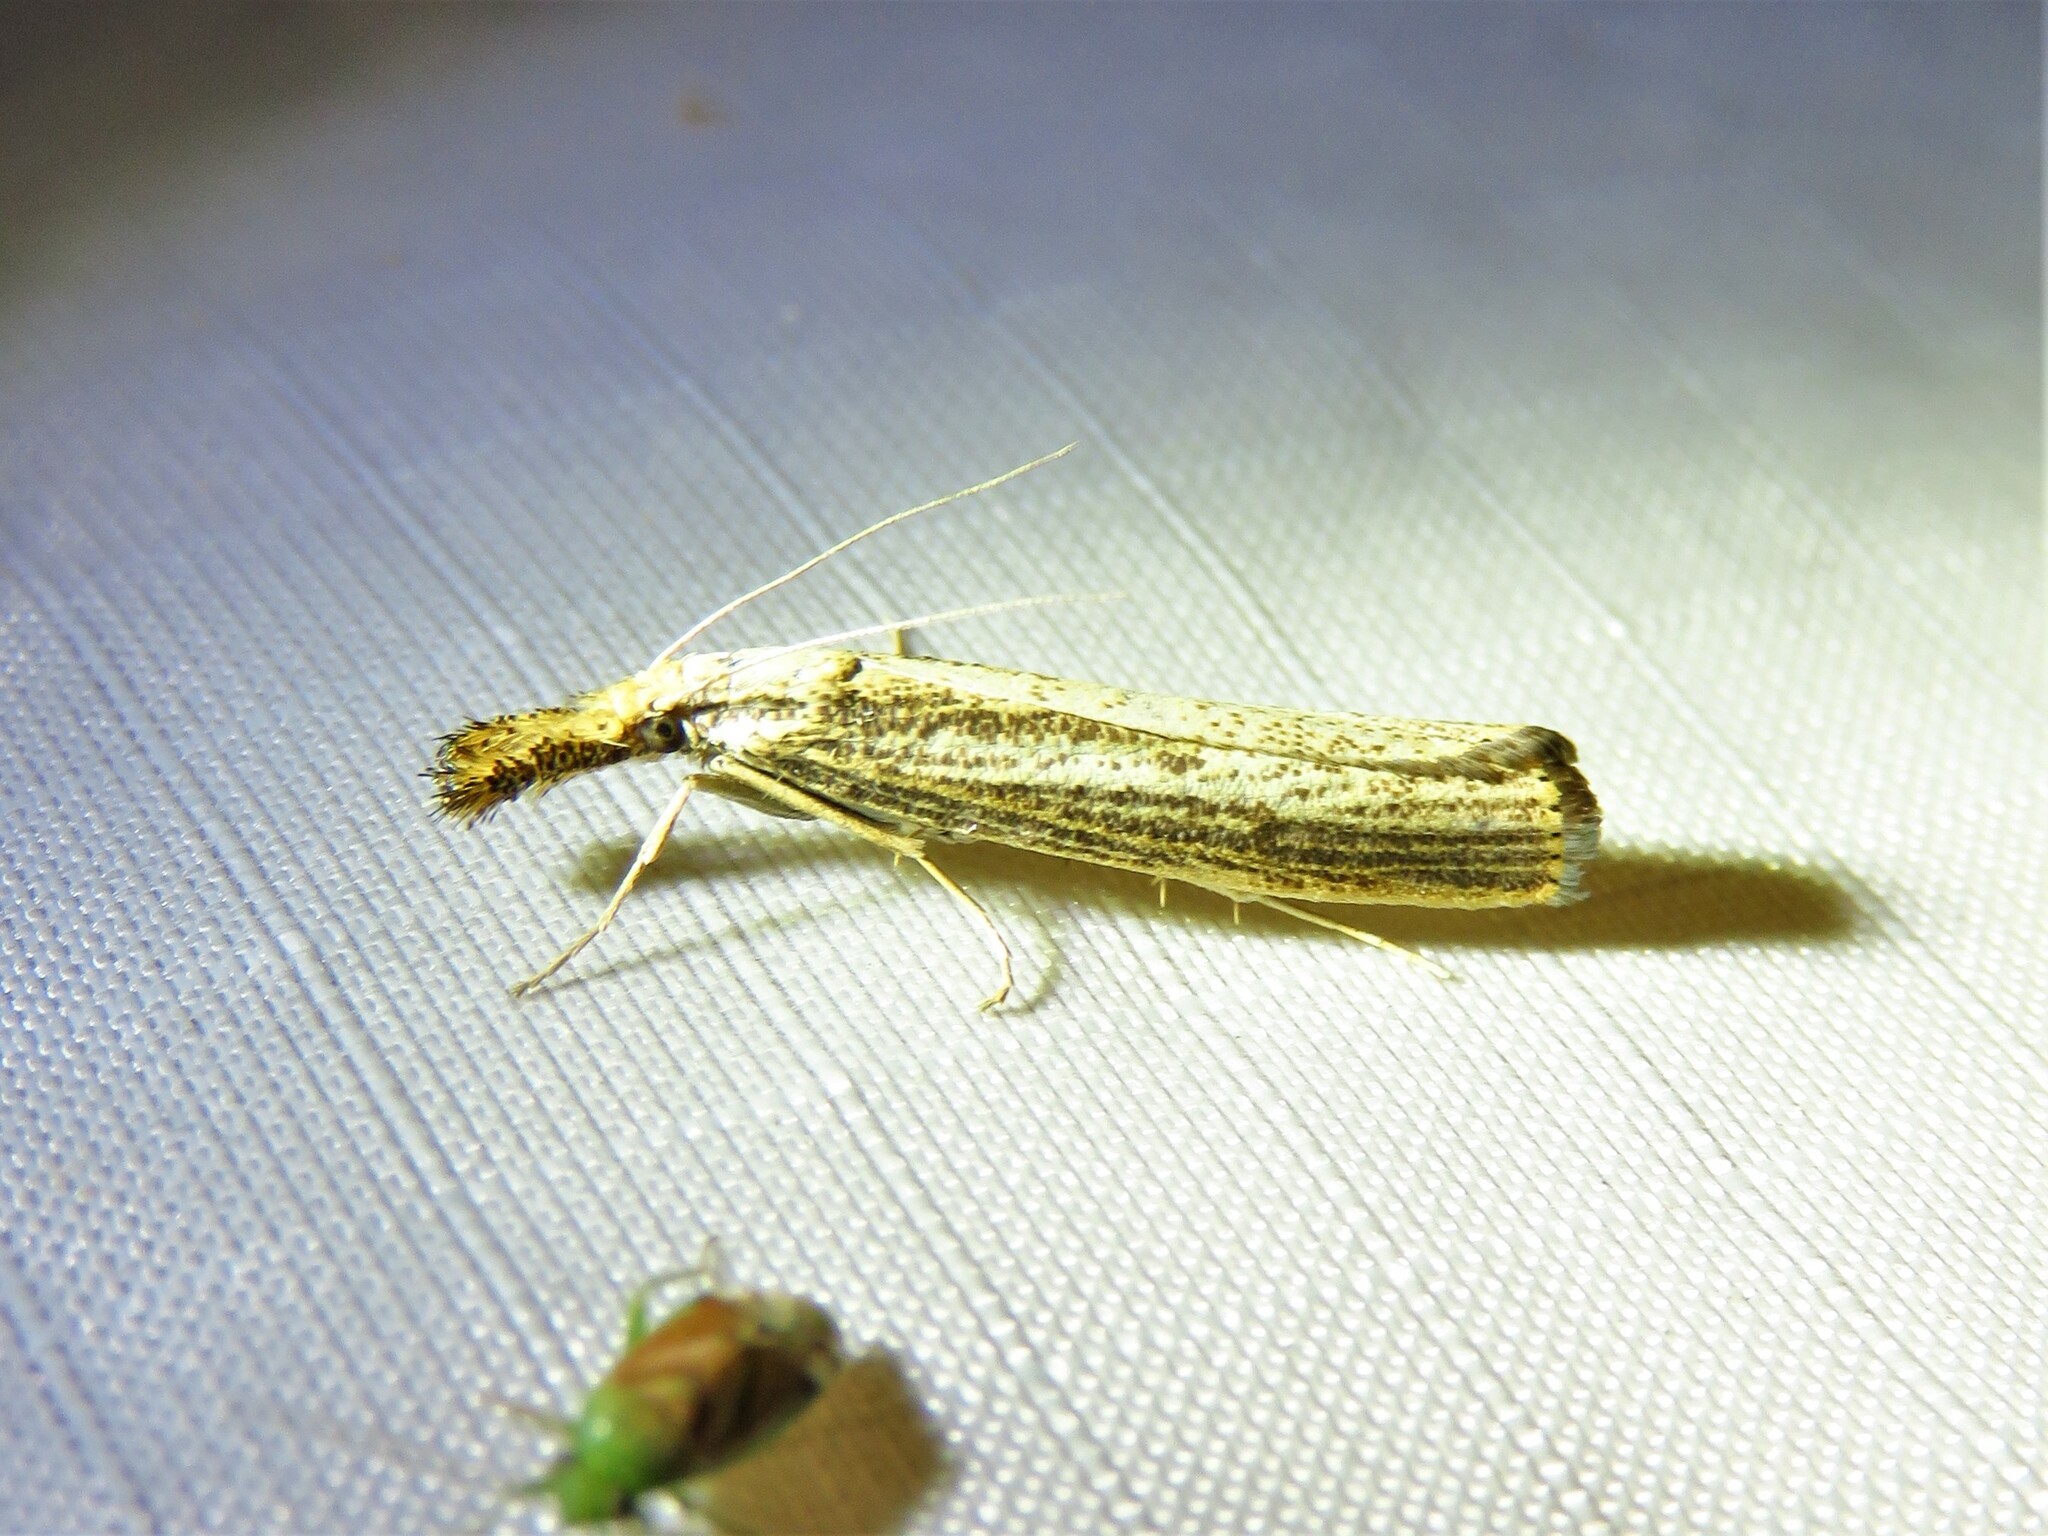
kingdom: Animalia
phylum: Arthropoda
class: Insecta
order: Lepidoptera
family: Crambidae
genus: Agriphila
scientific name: Agriphila vulgivagellus
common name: Vagabond crambus moth
